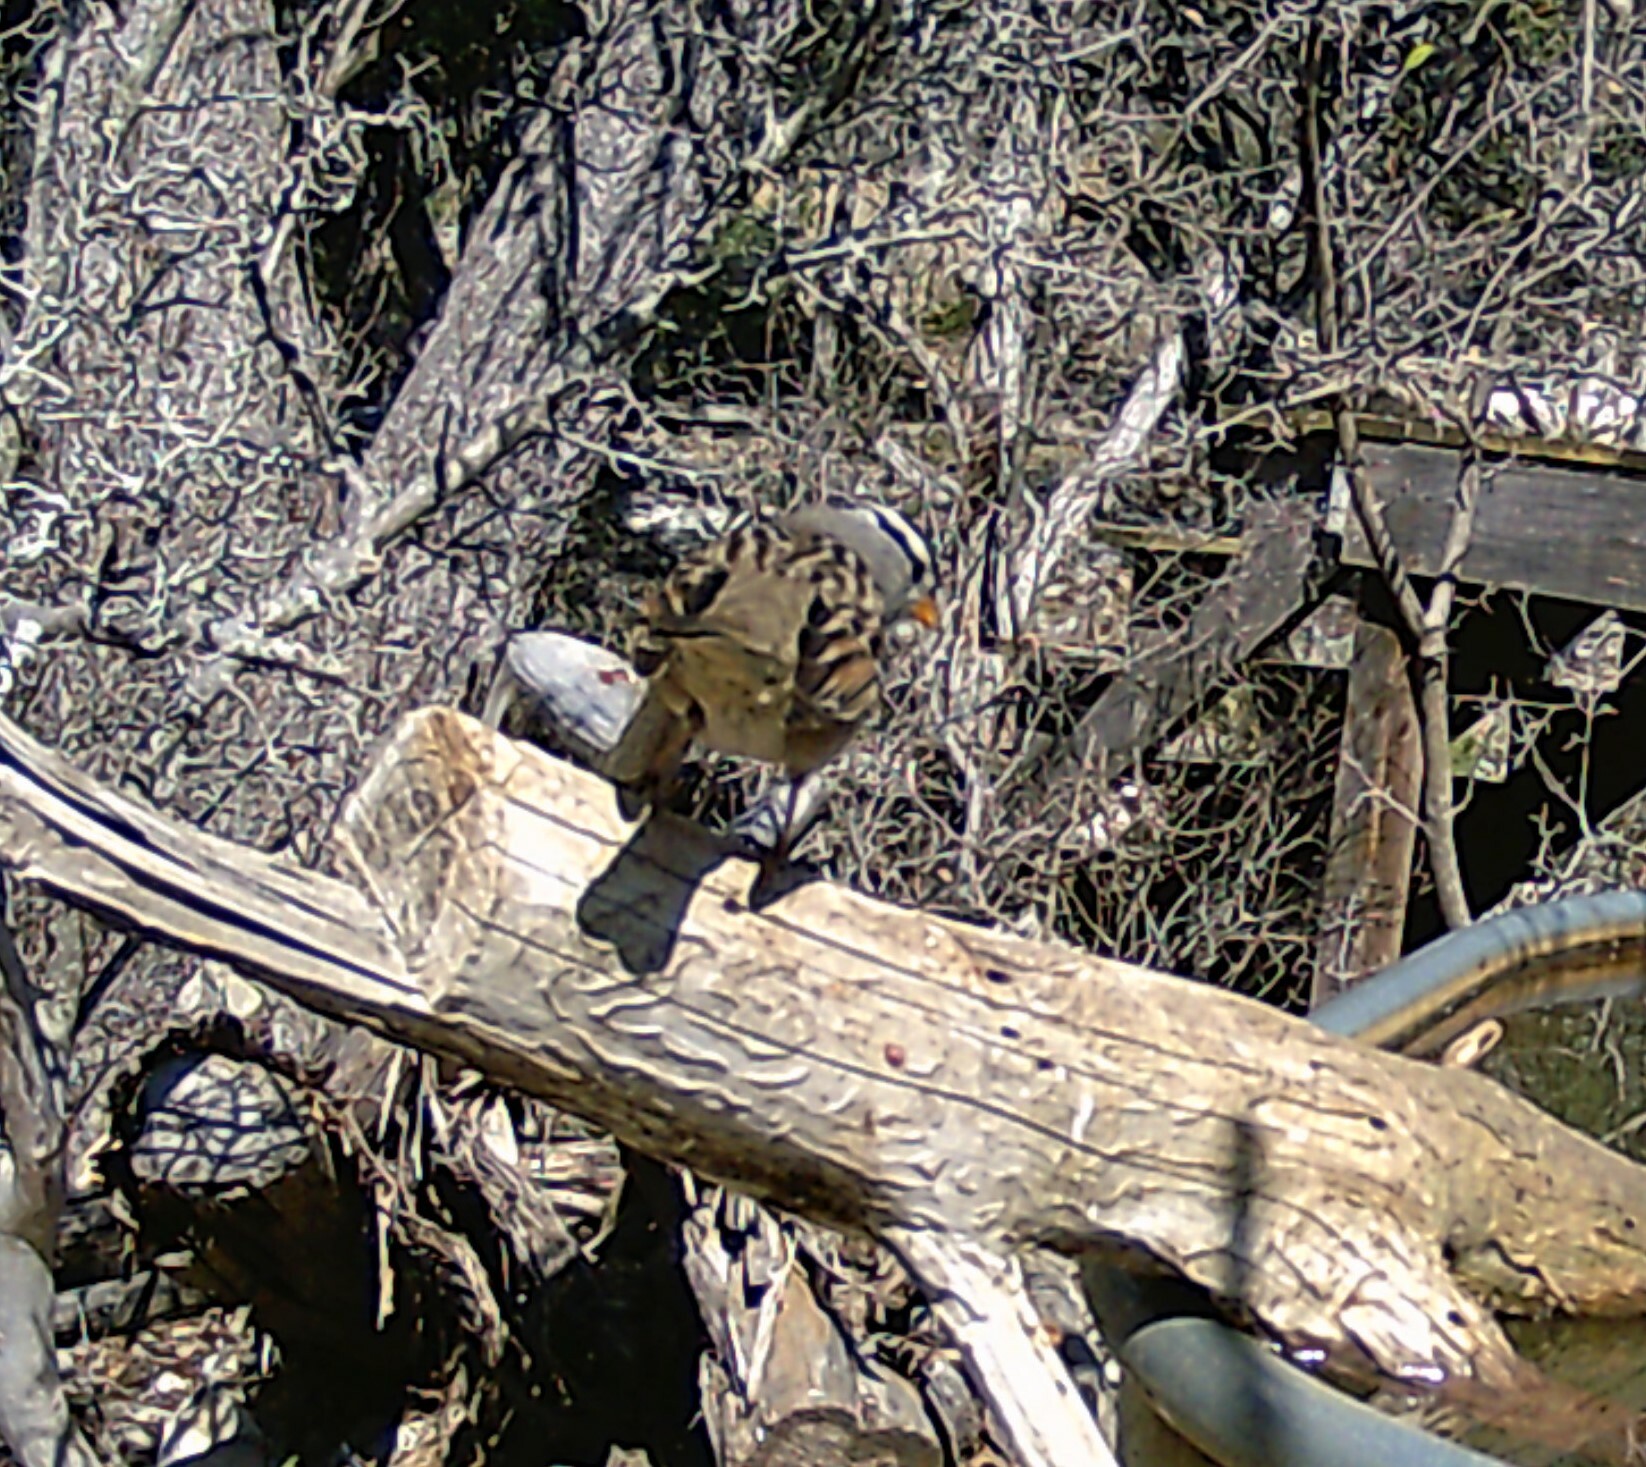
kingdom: Animalia
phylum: Chordata
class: Aves
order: Passeriformes
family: Passerellidae
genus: Zonotrichia
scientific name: Zonotrichia leucophrys
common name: White-crowned sparrow
